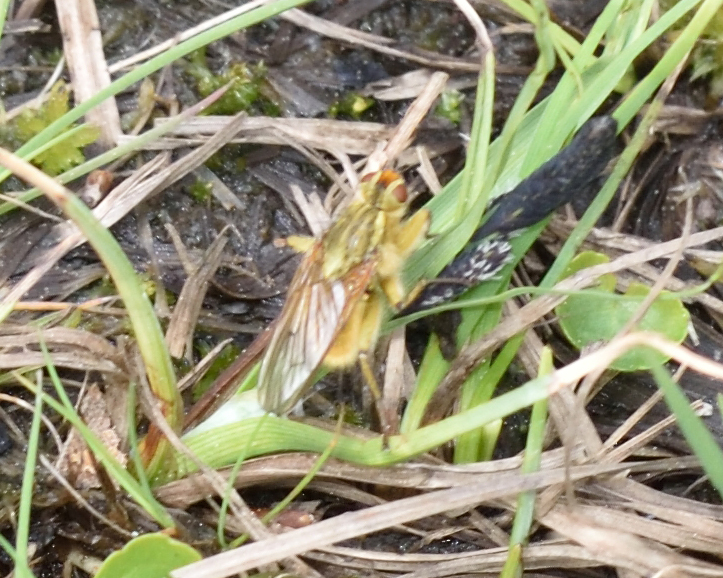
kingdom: Animalia
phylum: Arthropoda
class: Insecta
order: Diptera
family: Scathophagidae
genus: Scathophaga
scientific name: Scathophaga stercoraria
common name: Yellow dung fly
